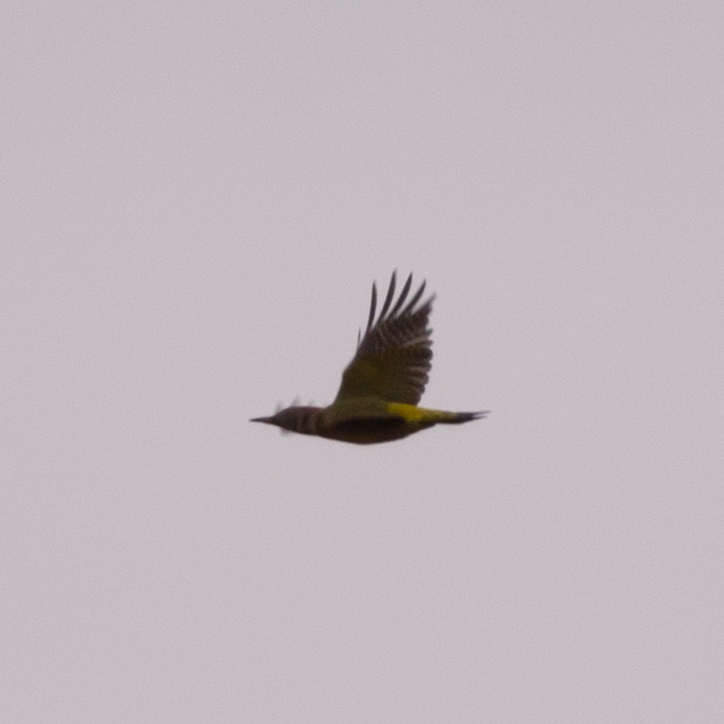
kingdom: Animalia
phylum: Chordata
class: Aves
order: Piciformes
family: Picidae
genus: Picus
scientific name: Picus sharpei
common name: Iberian green woodpecker
